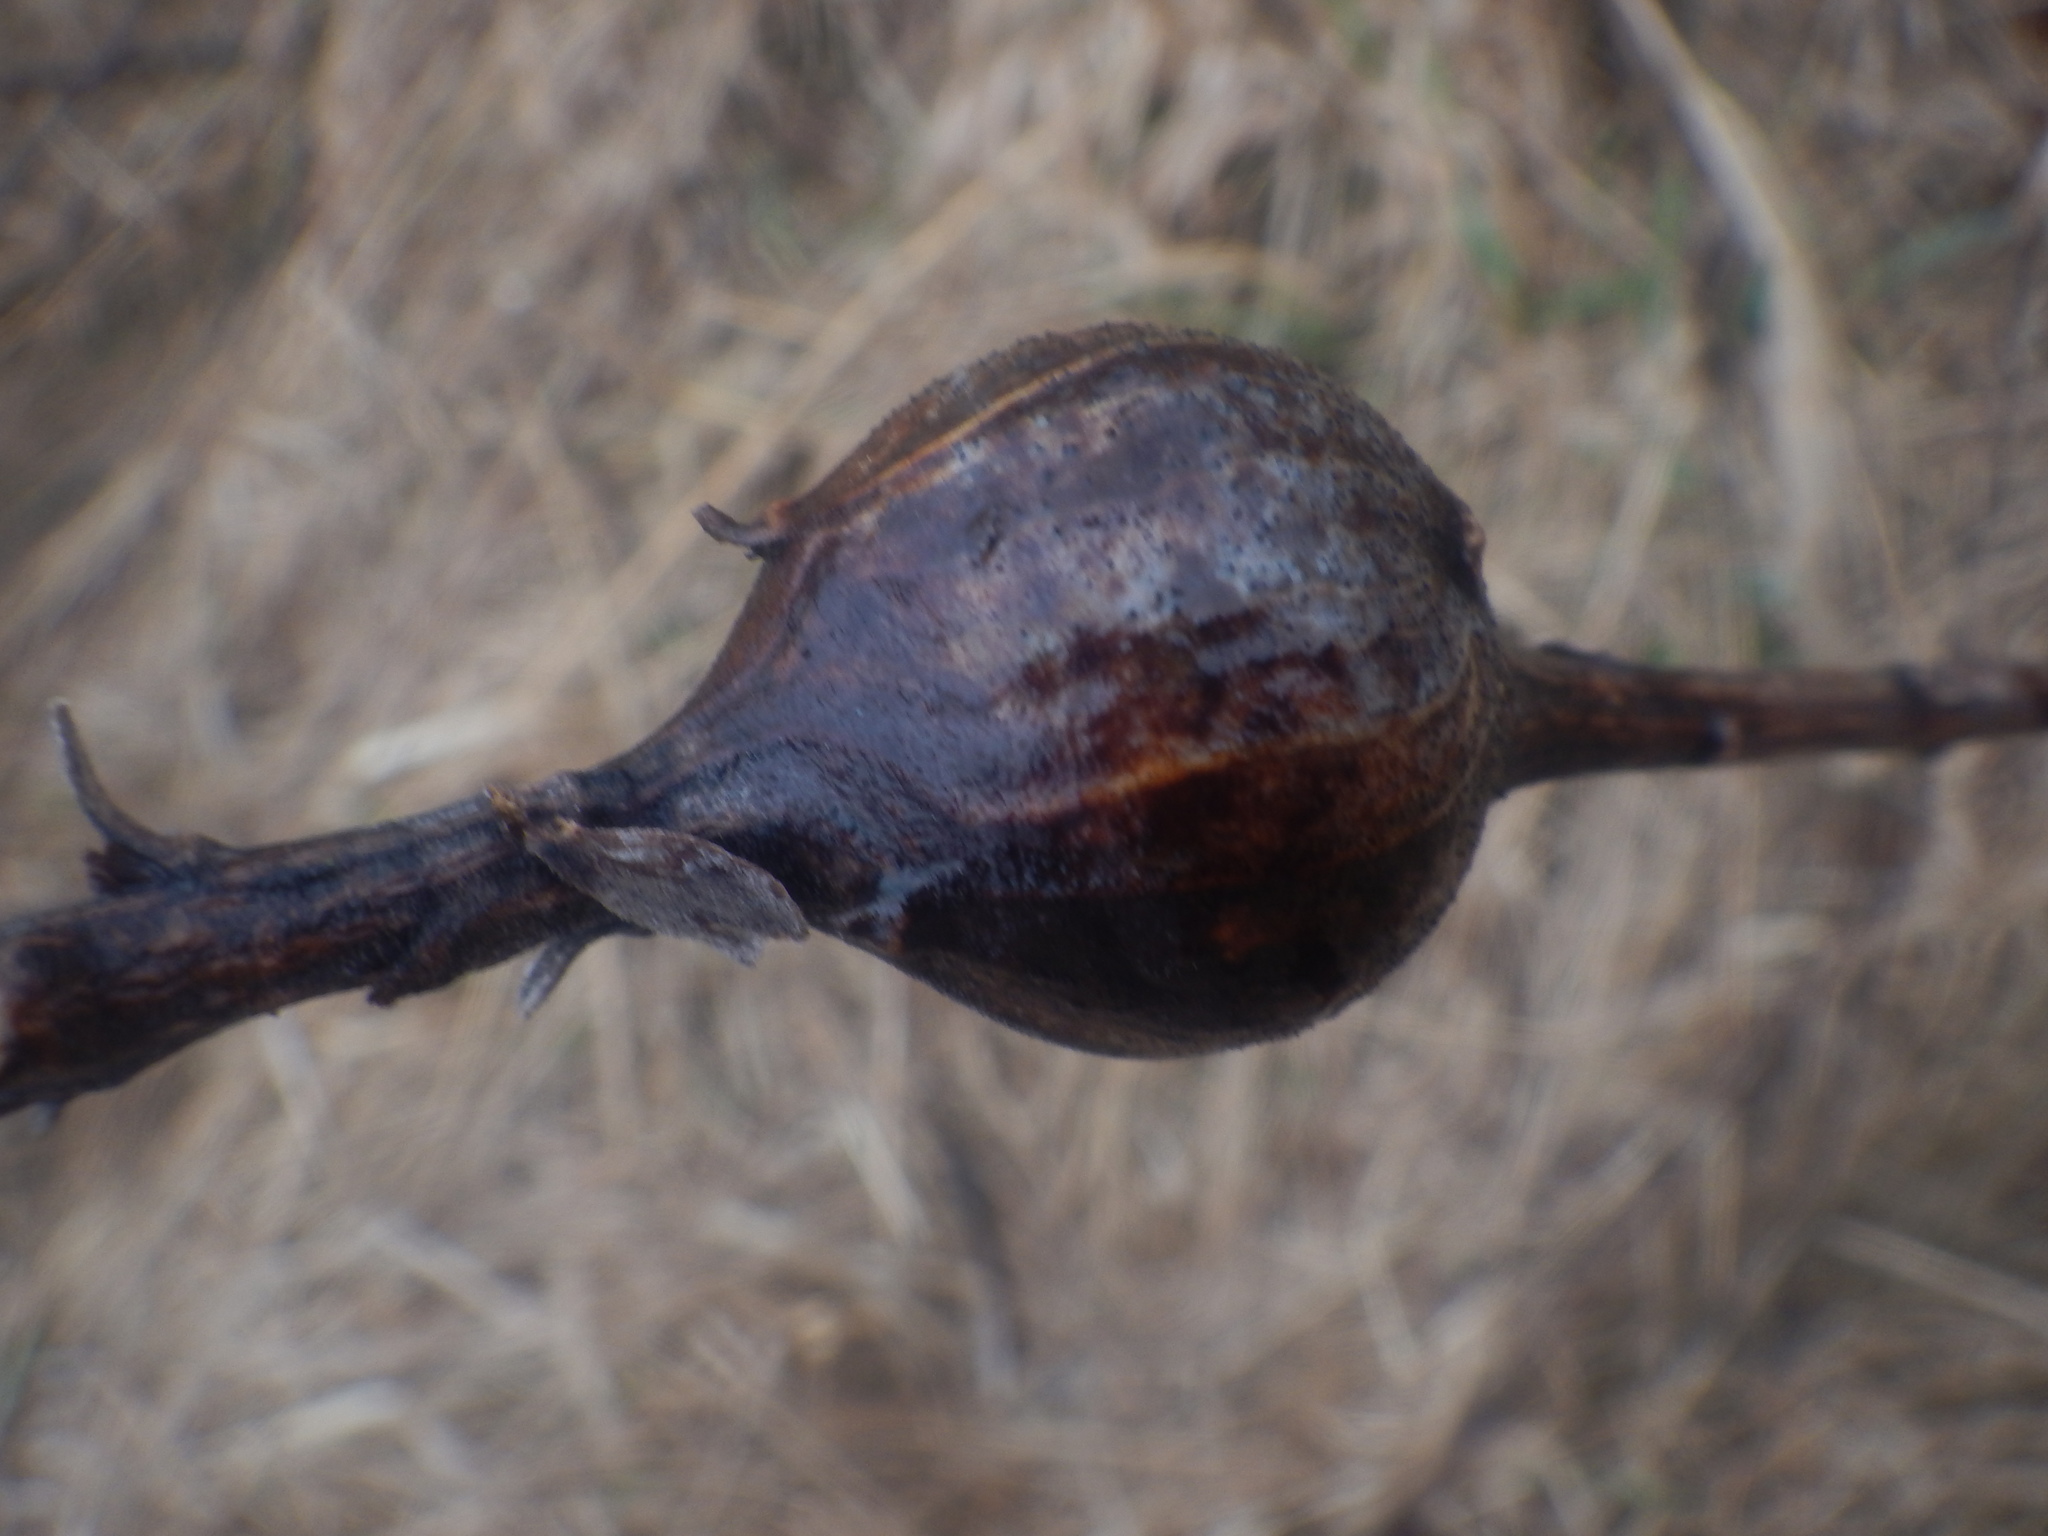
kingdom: Animalia
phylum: Arthropoda
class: Insecta
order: Diptera
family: Tephritidae
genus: Eurosta
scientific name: Eurosta solidaginis
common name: Goldenrod gall fly
